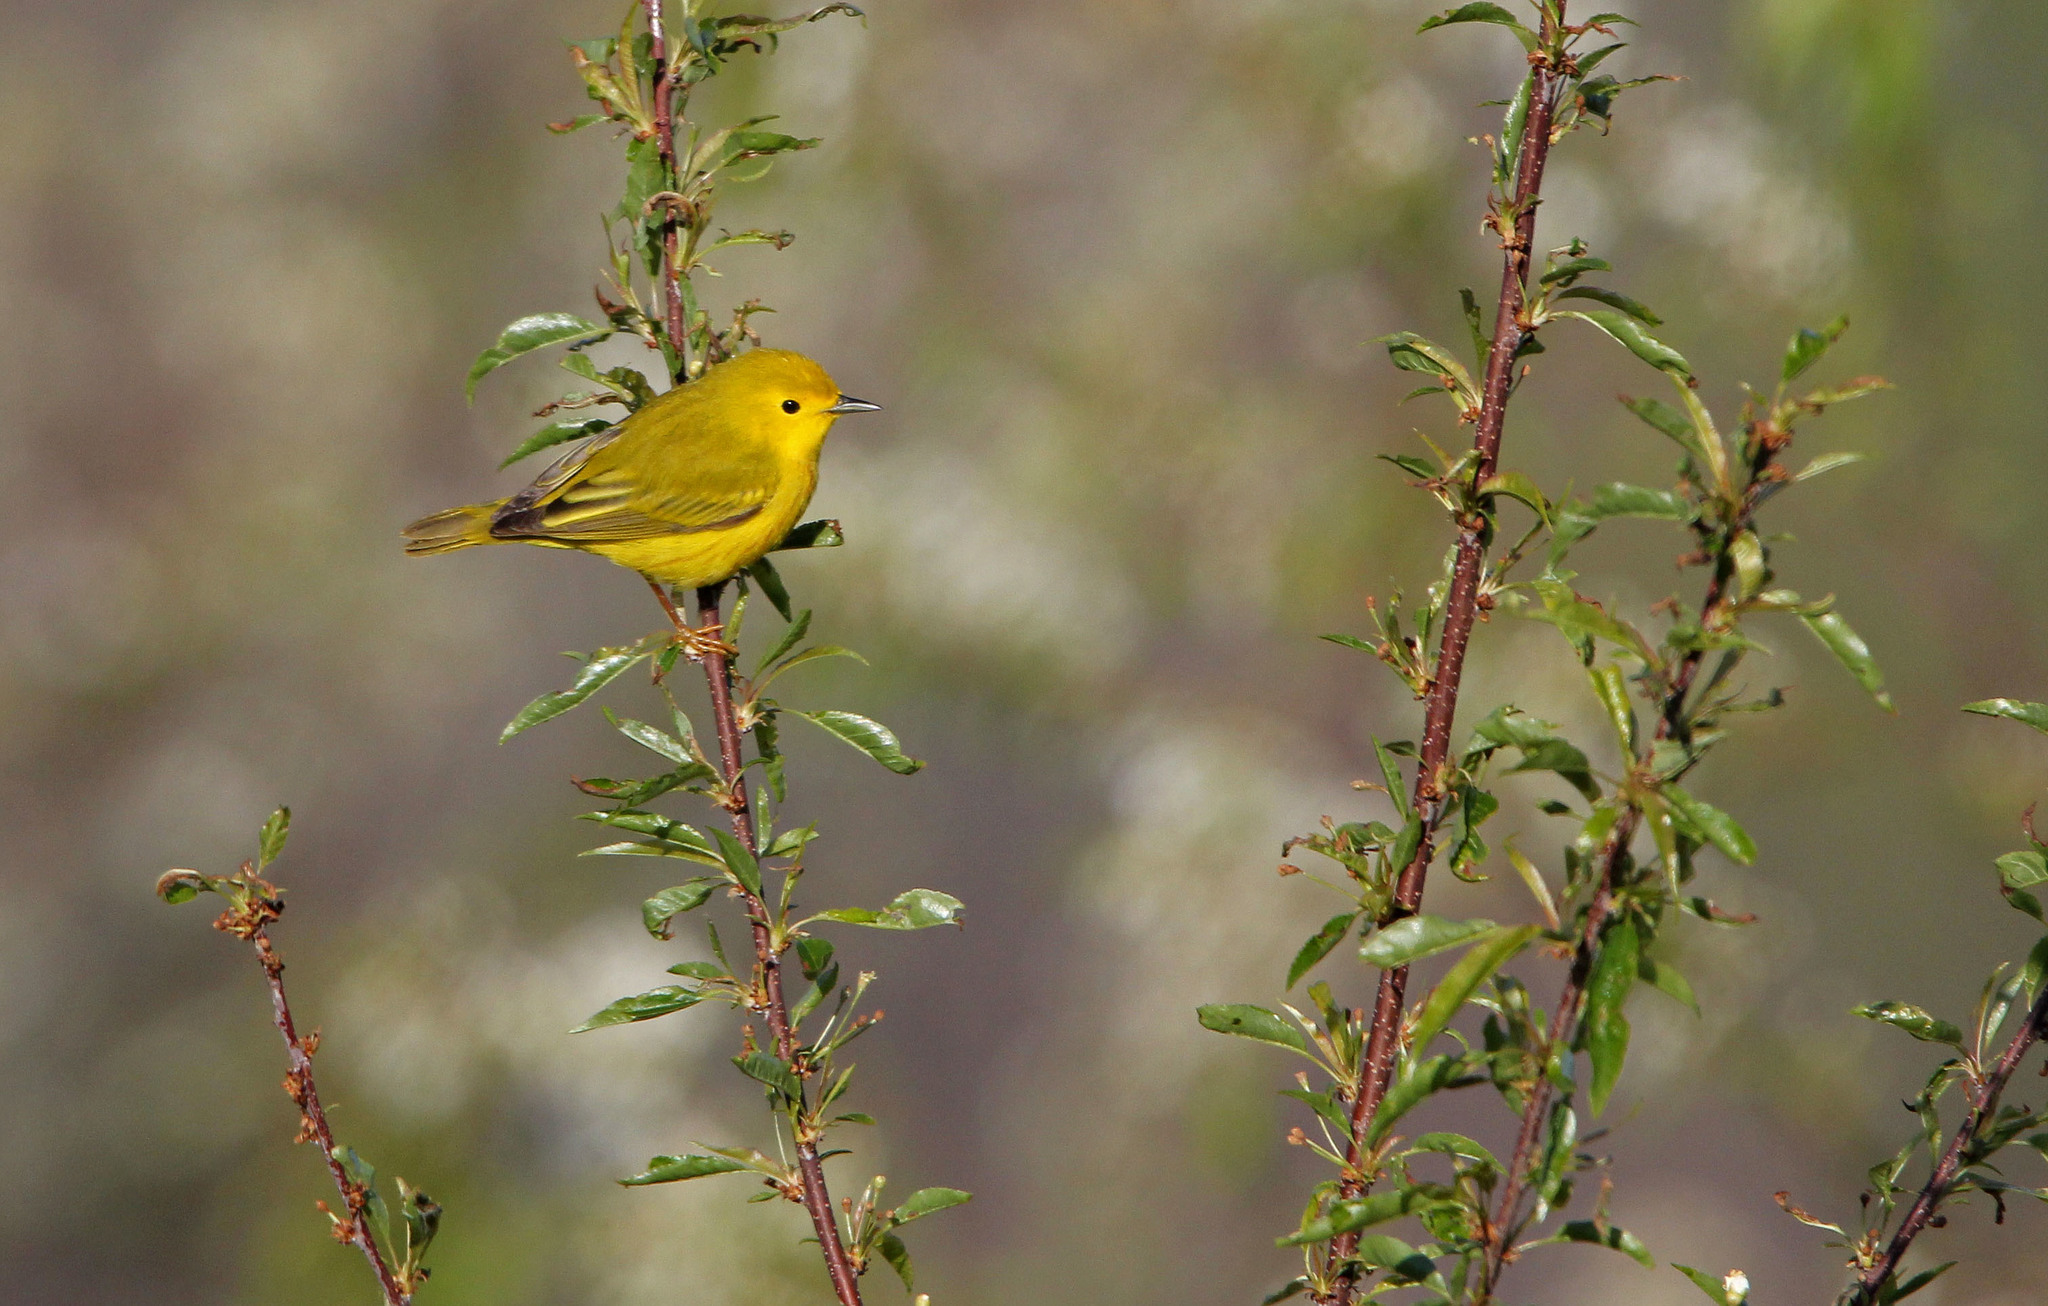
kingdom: Animalia
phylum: Chordata
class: Aves
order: Passeriformes
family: Parulidae
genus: Setophaga
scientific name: Setophaga petechia
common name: Yellow warbler
